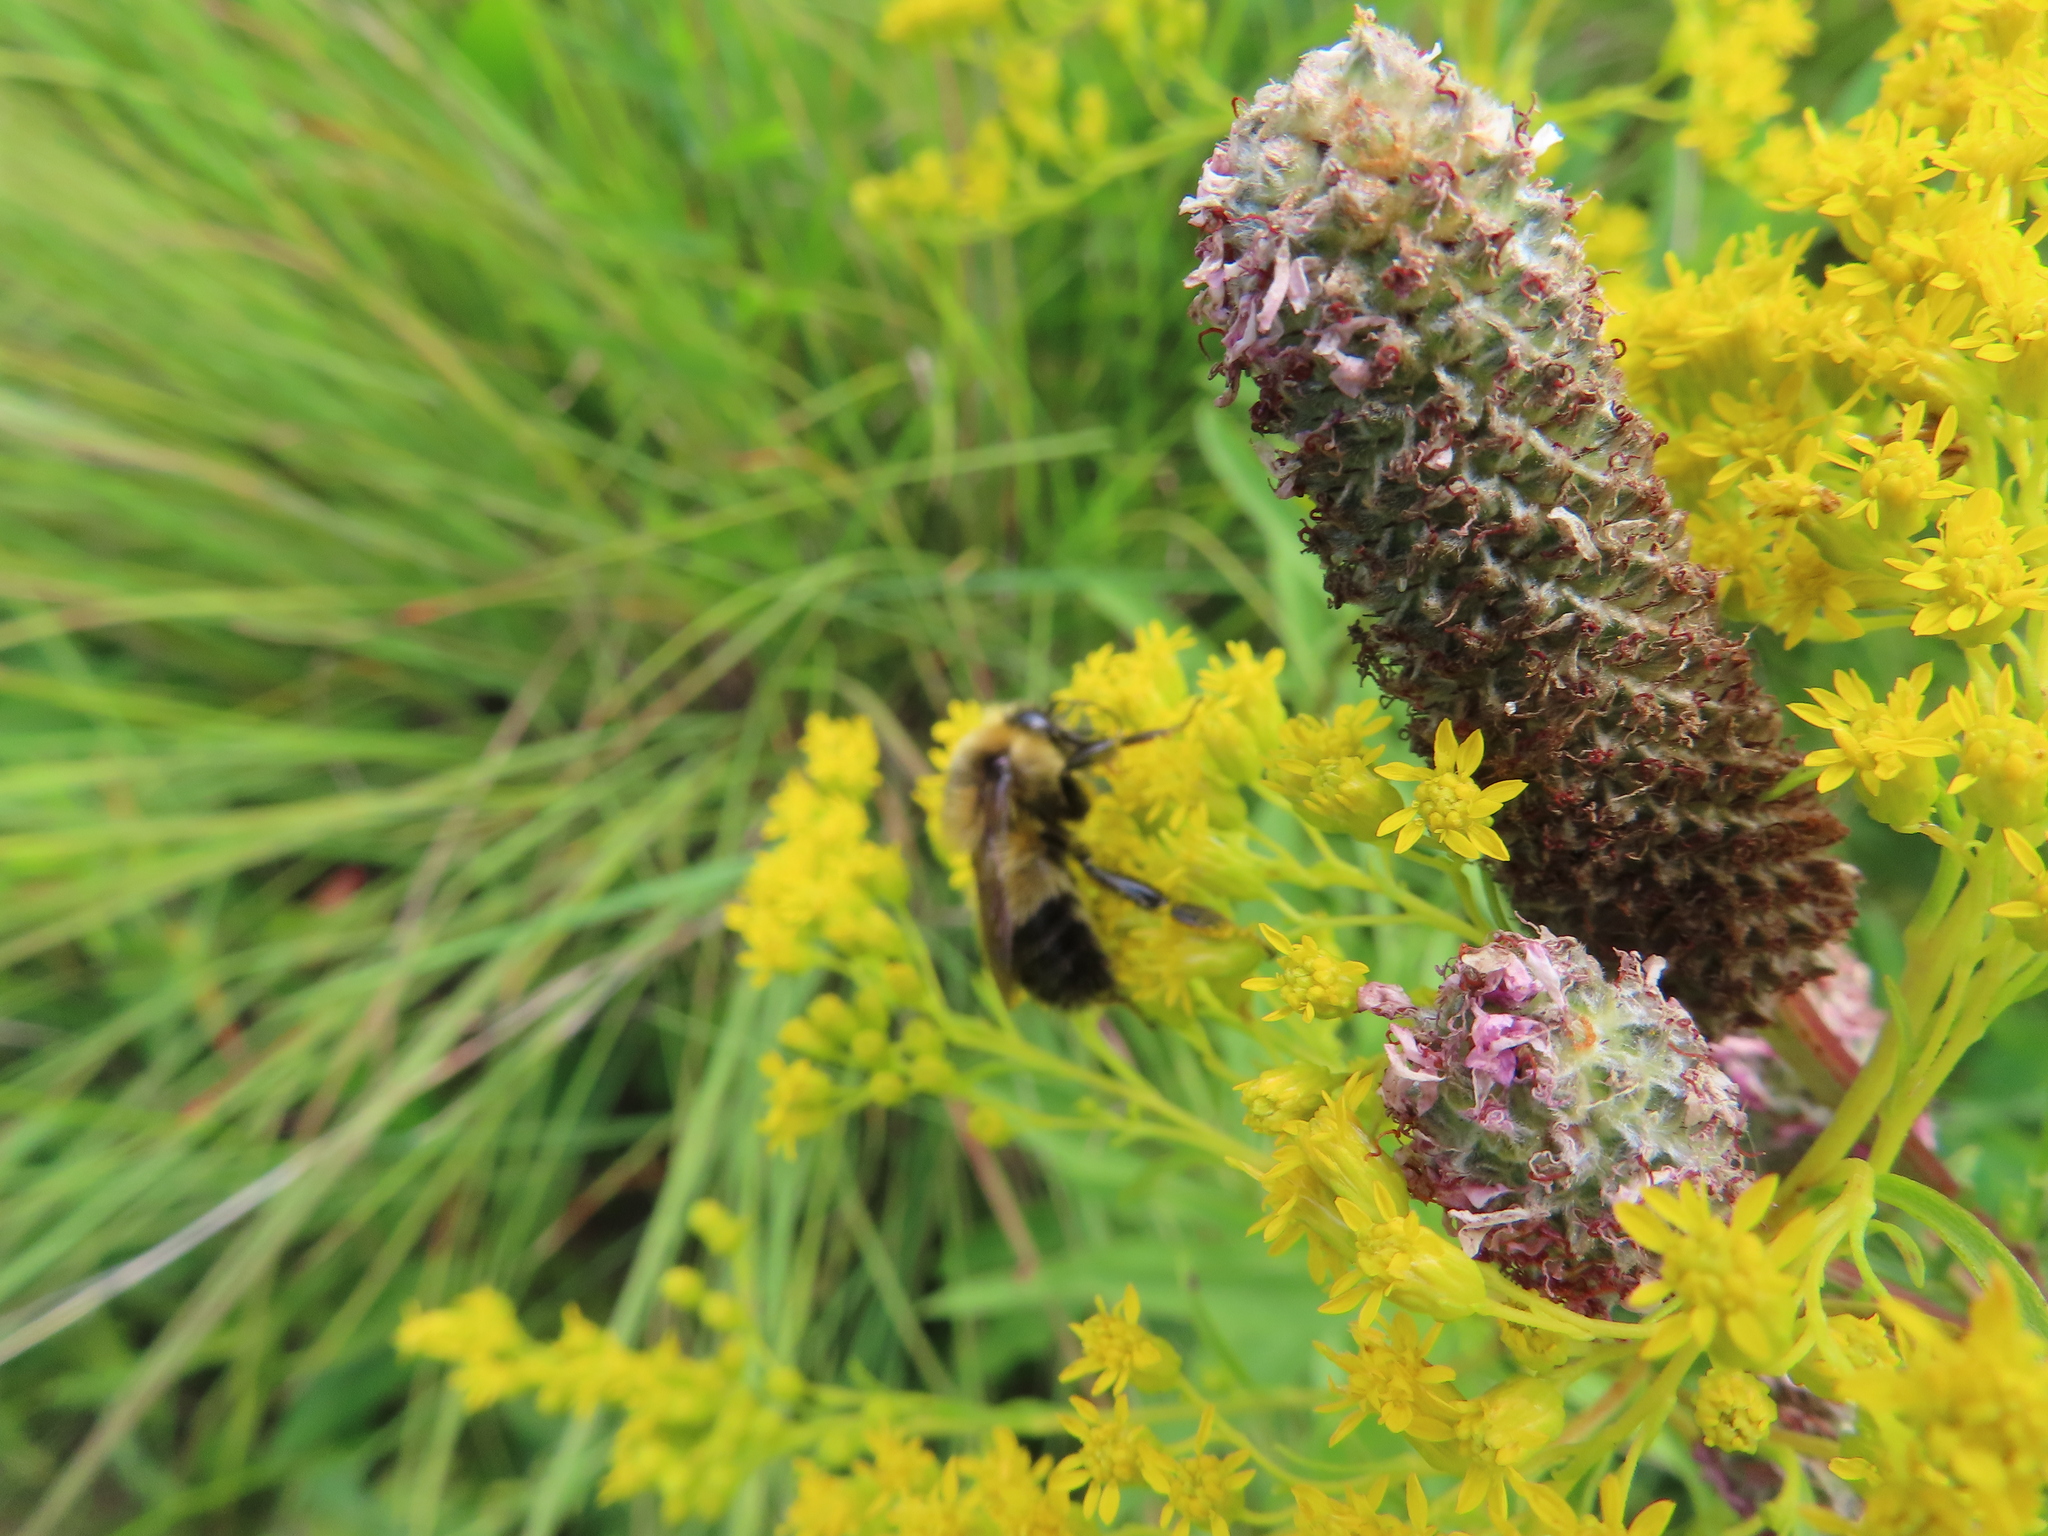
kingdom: Animalia
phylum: Arthropoda
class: Insecta
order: Hymenoptera
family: Apidae
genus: Bombus
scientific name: Bombus rufocinctus
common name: Red-belted bumble bee
